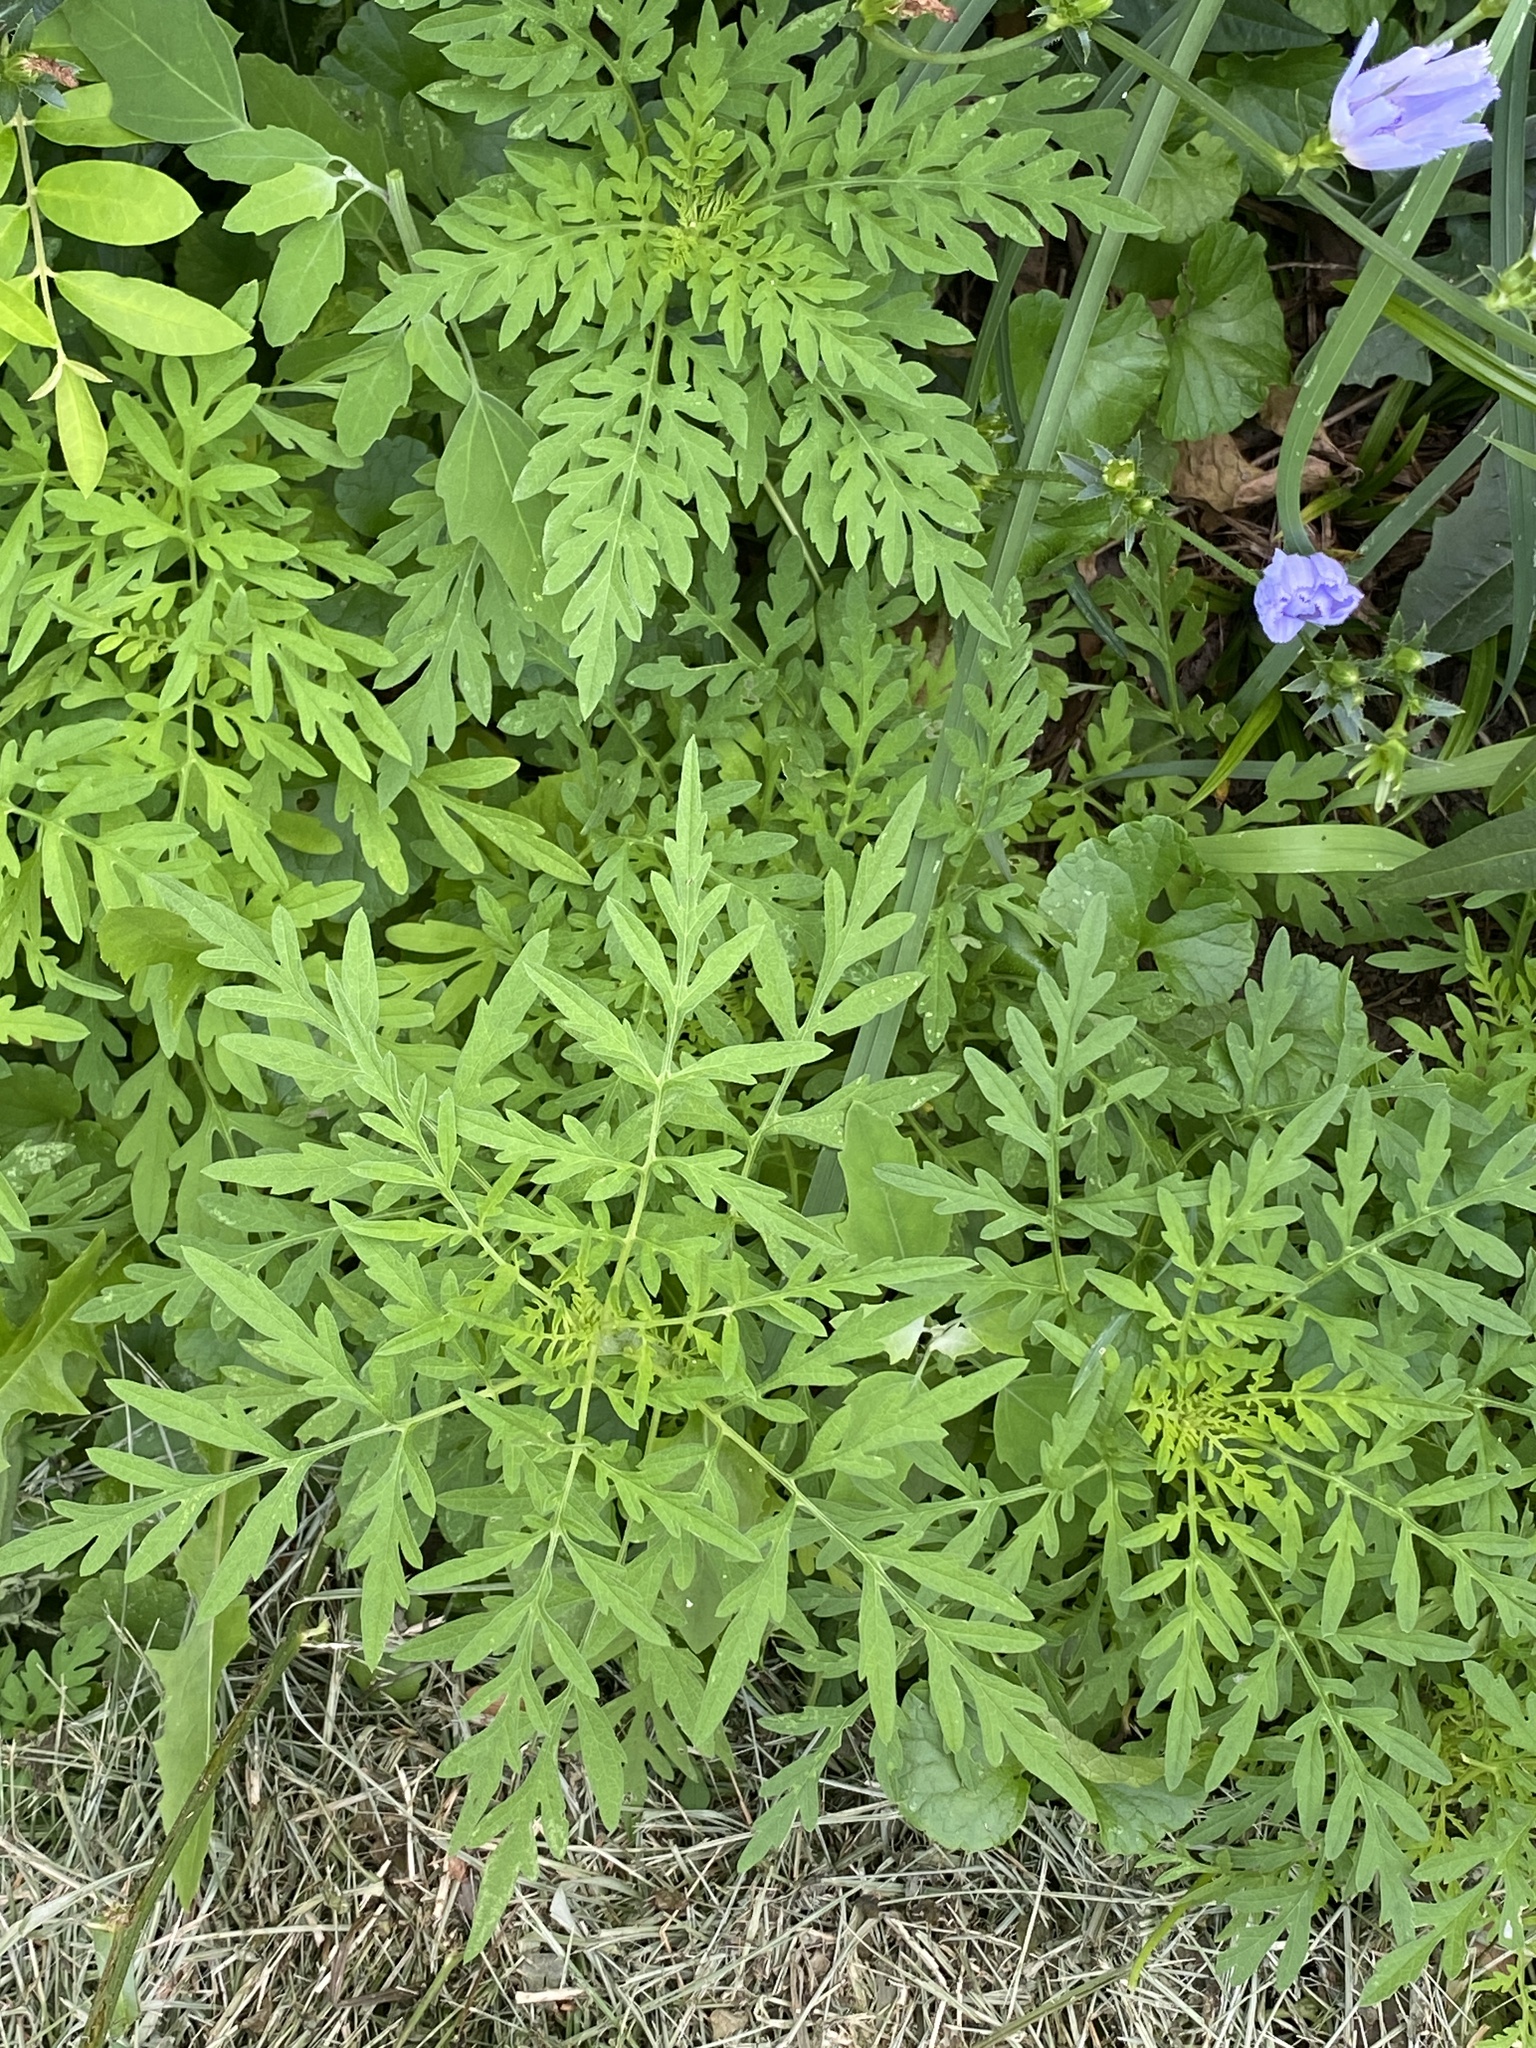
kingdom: Plantae
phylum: Tracheophyta
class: Magnoliopsida
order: Asterales
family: Asteraceae
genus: Ambrosia
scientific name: Ambrosia artemisiifolia
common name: Annual ragweed
